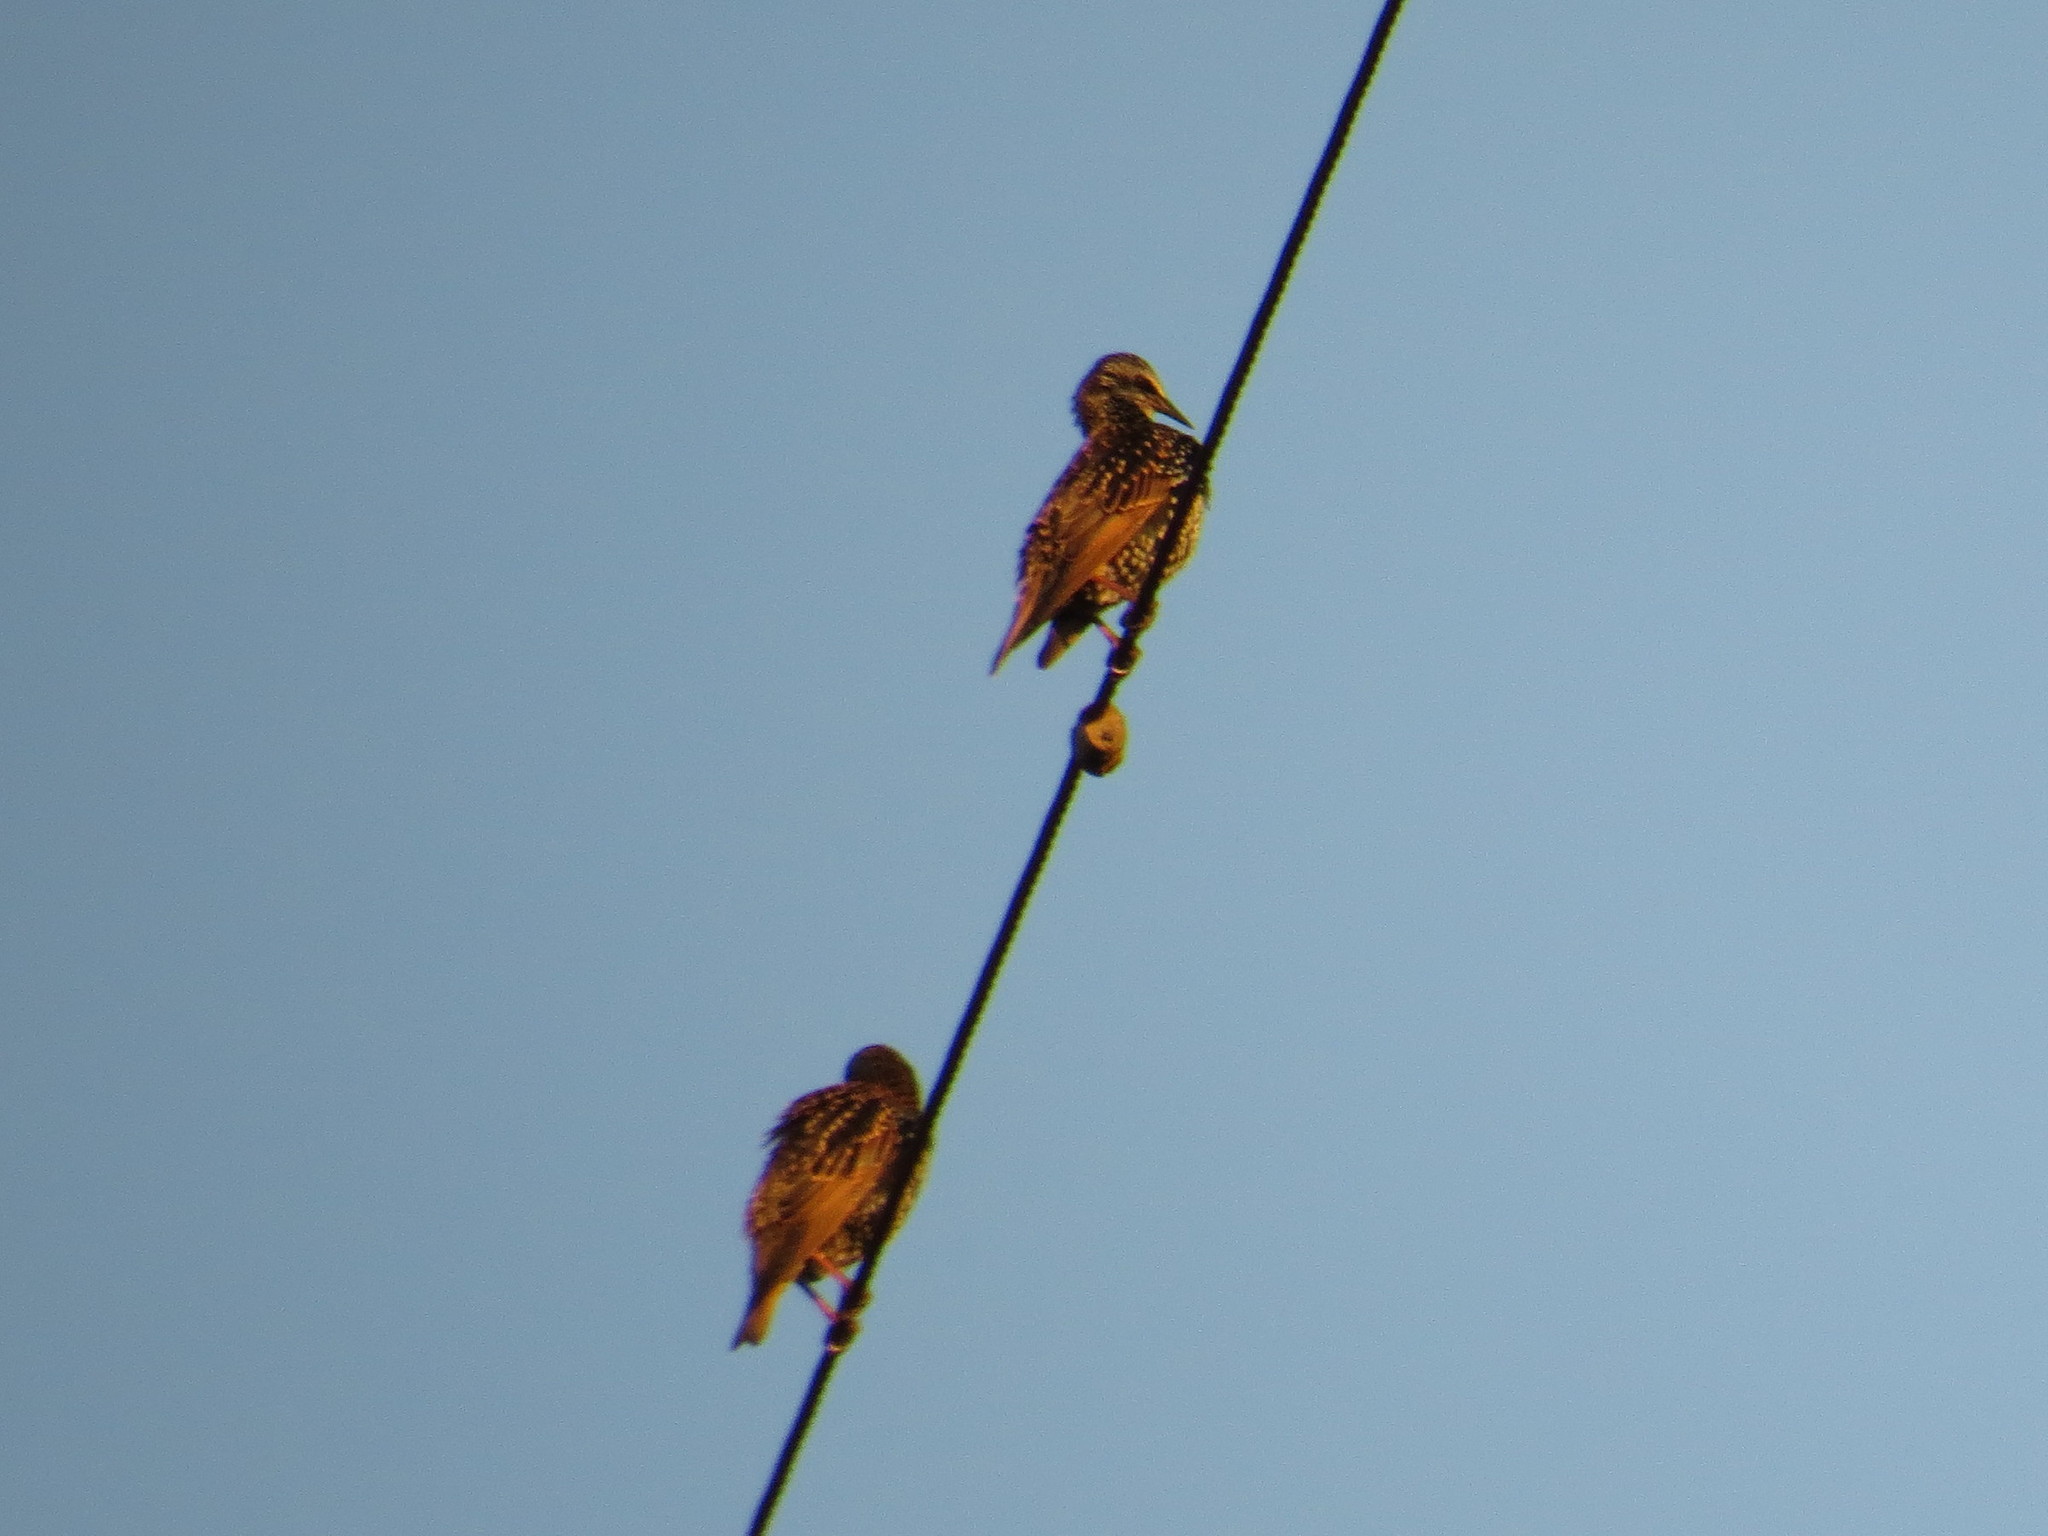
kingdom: Animalia
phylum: Chordata
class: Aves
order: Passeriformes
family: Sturnidae
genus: Sturnus
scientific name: Sturnus vulgaris
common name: Common starling
